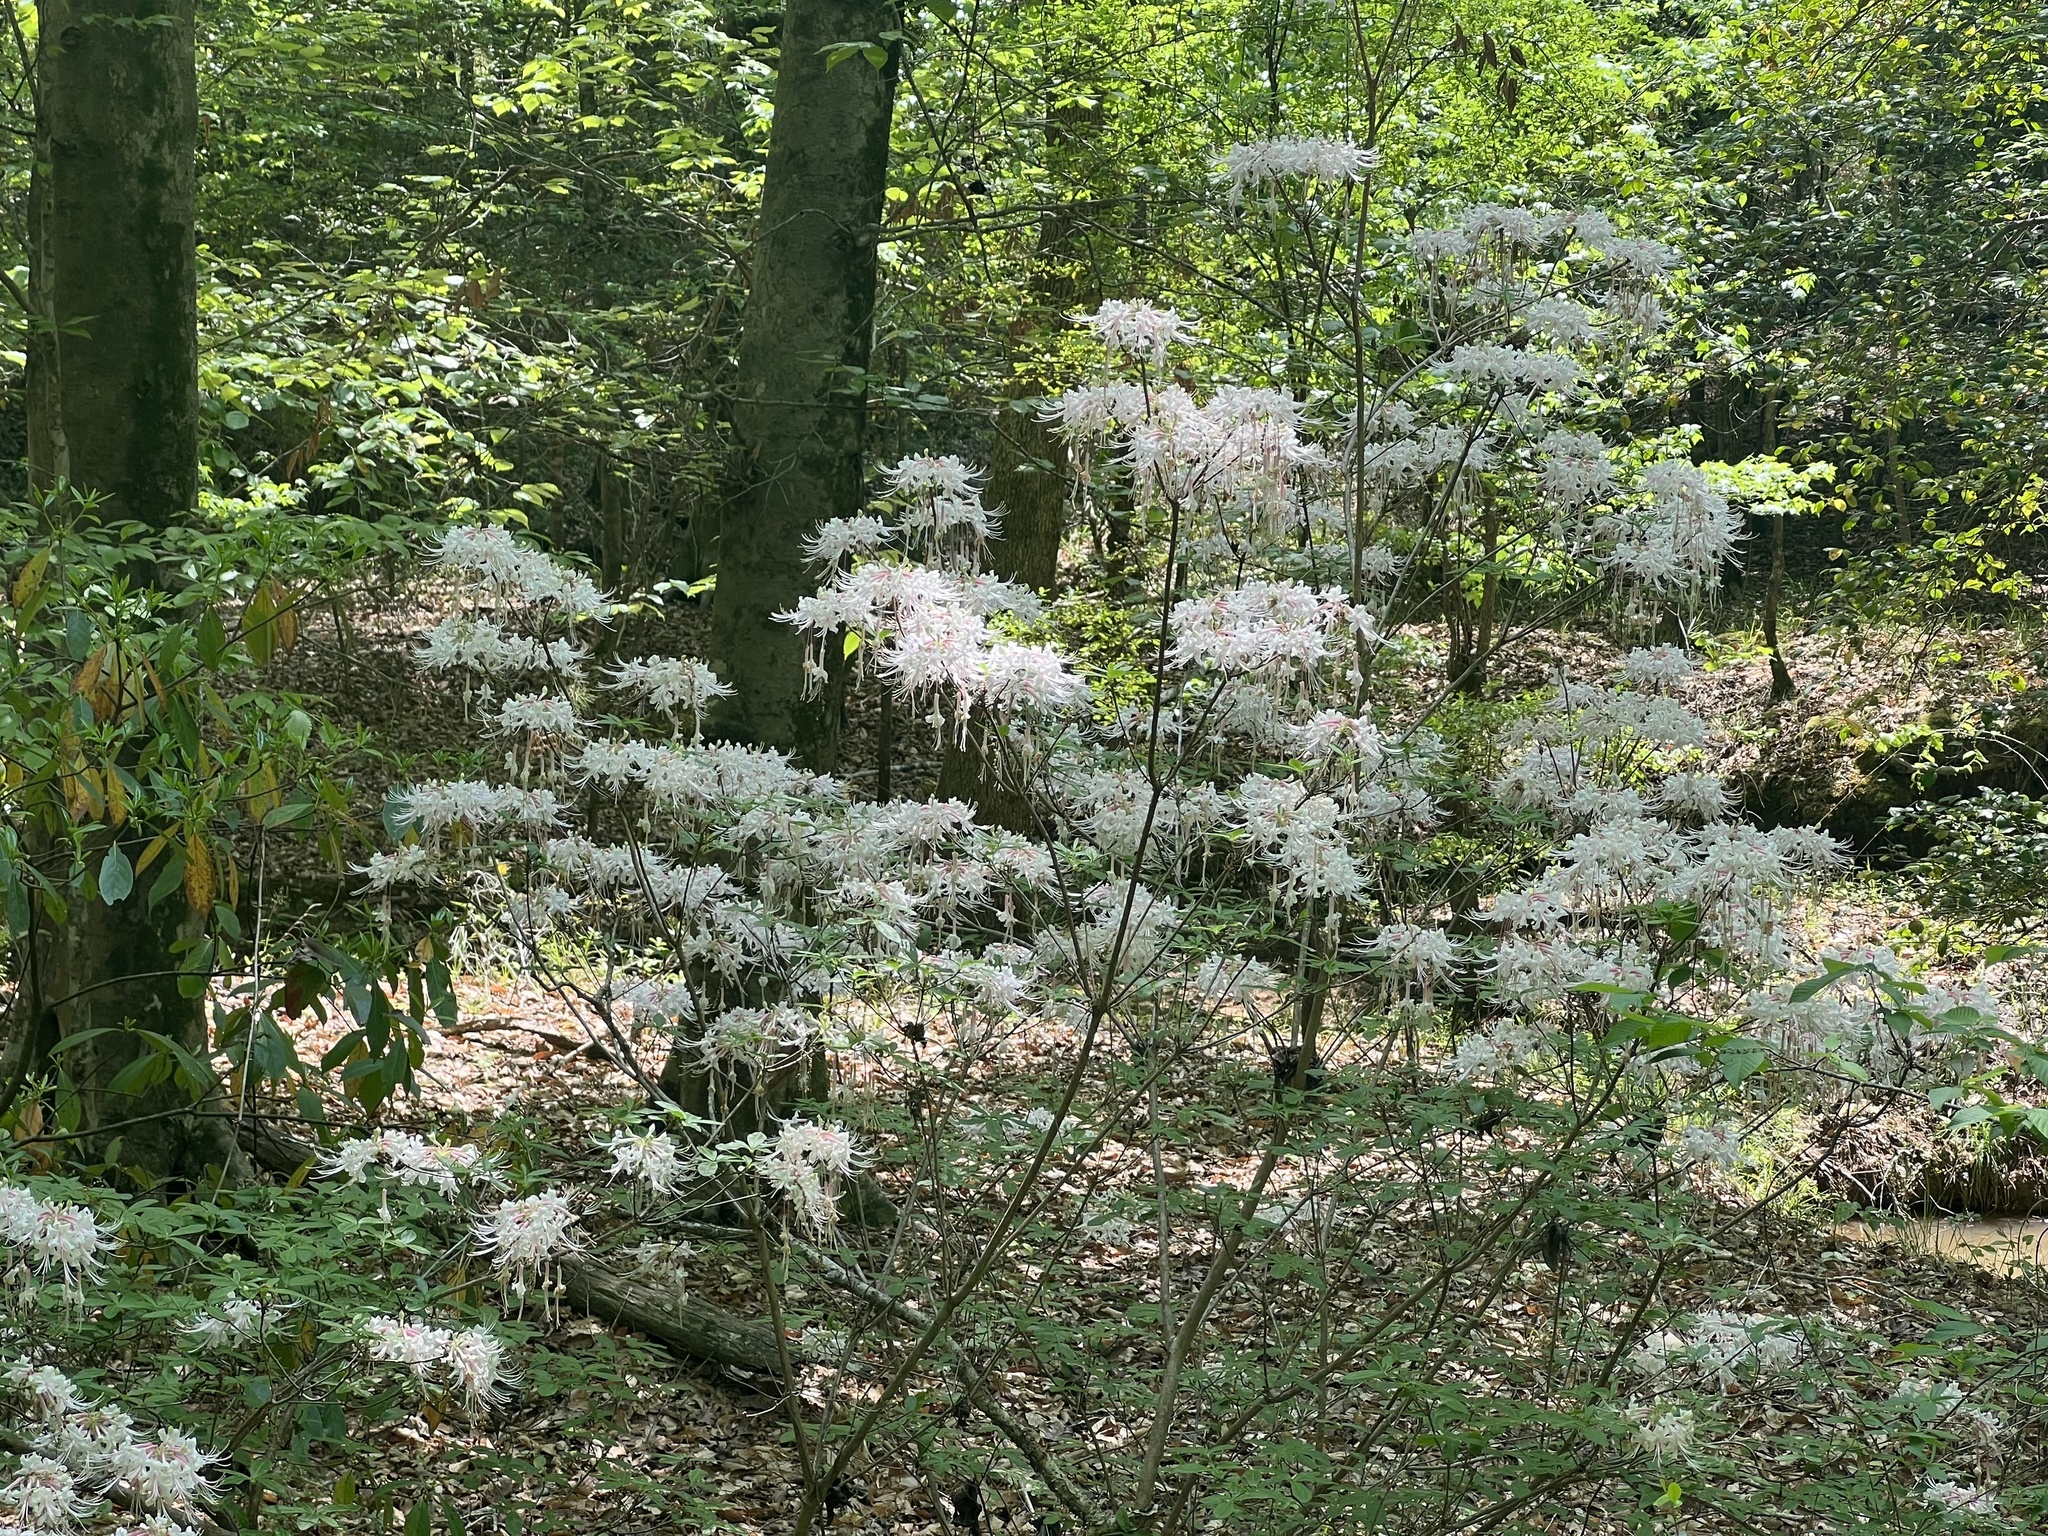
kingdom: Plantae
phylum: Tracheophyta
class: Magnoliopsida
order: Ericales
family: Ericaceae
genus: Rhododendron
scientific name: Rhododendron canescens
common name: Mountain azalea
